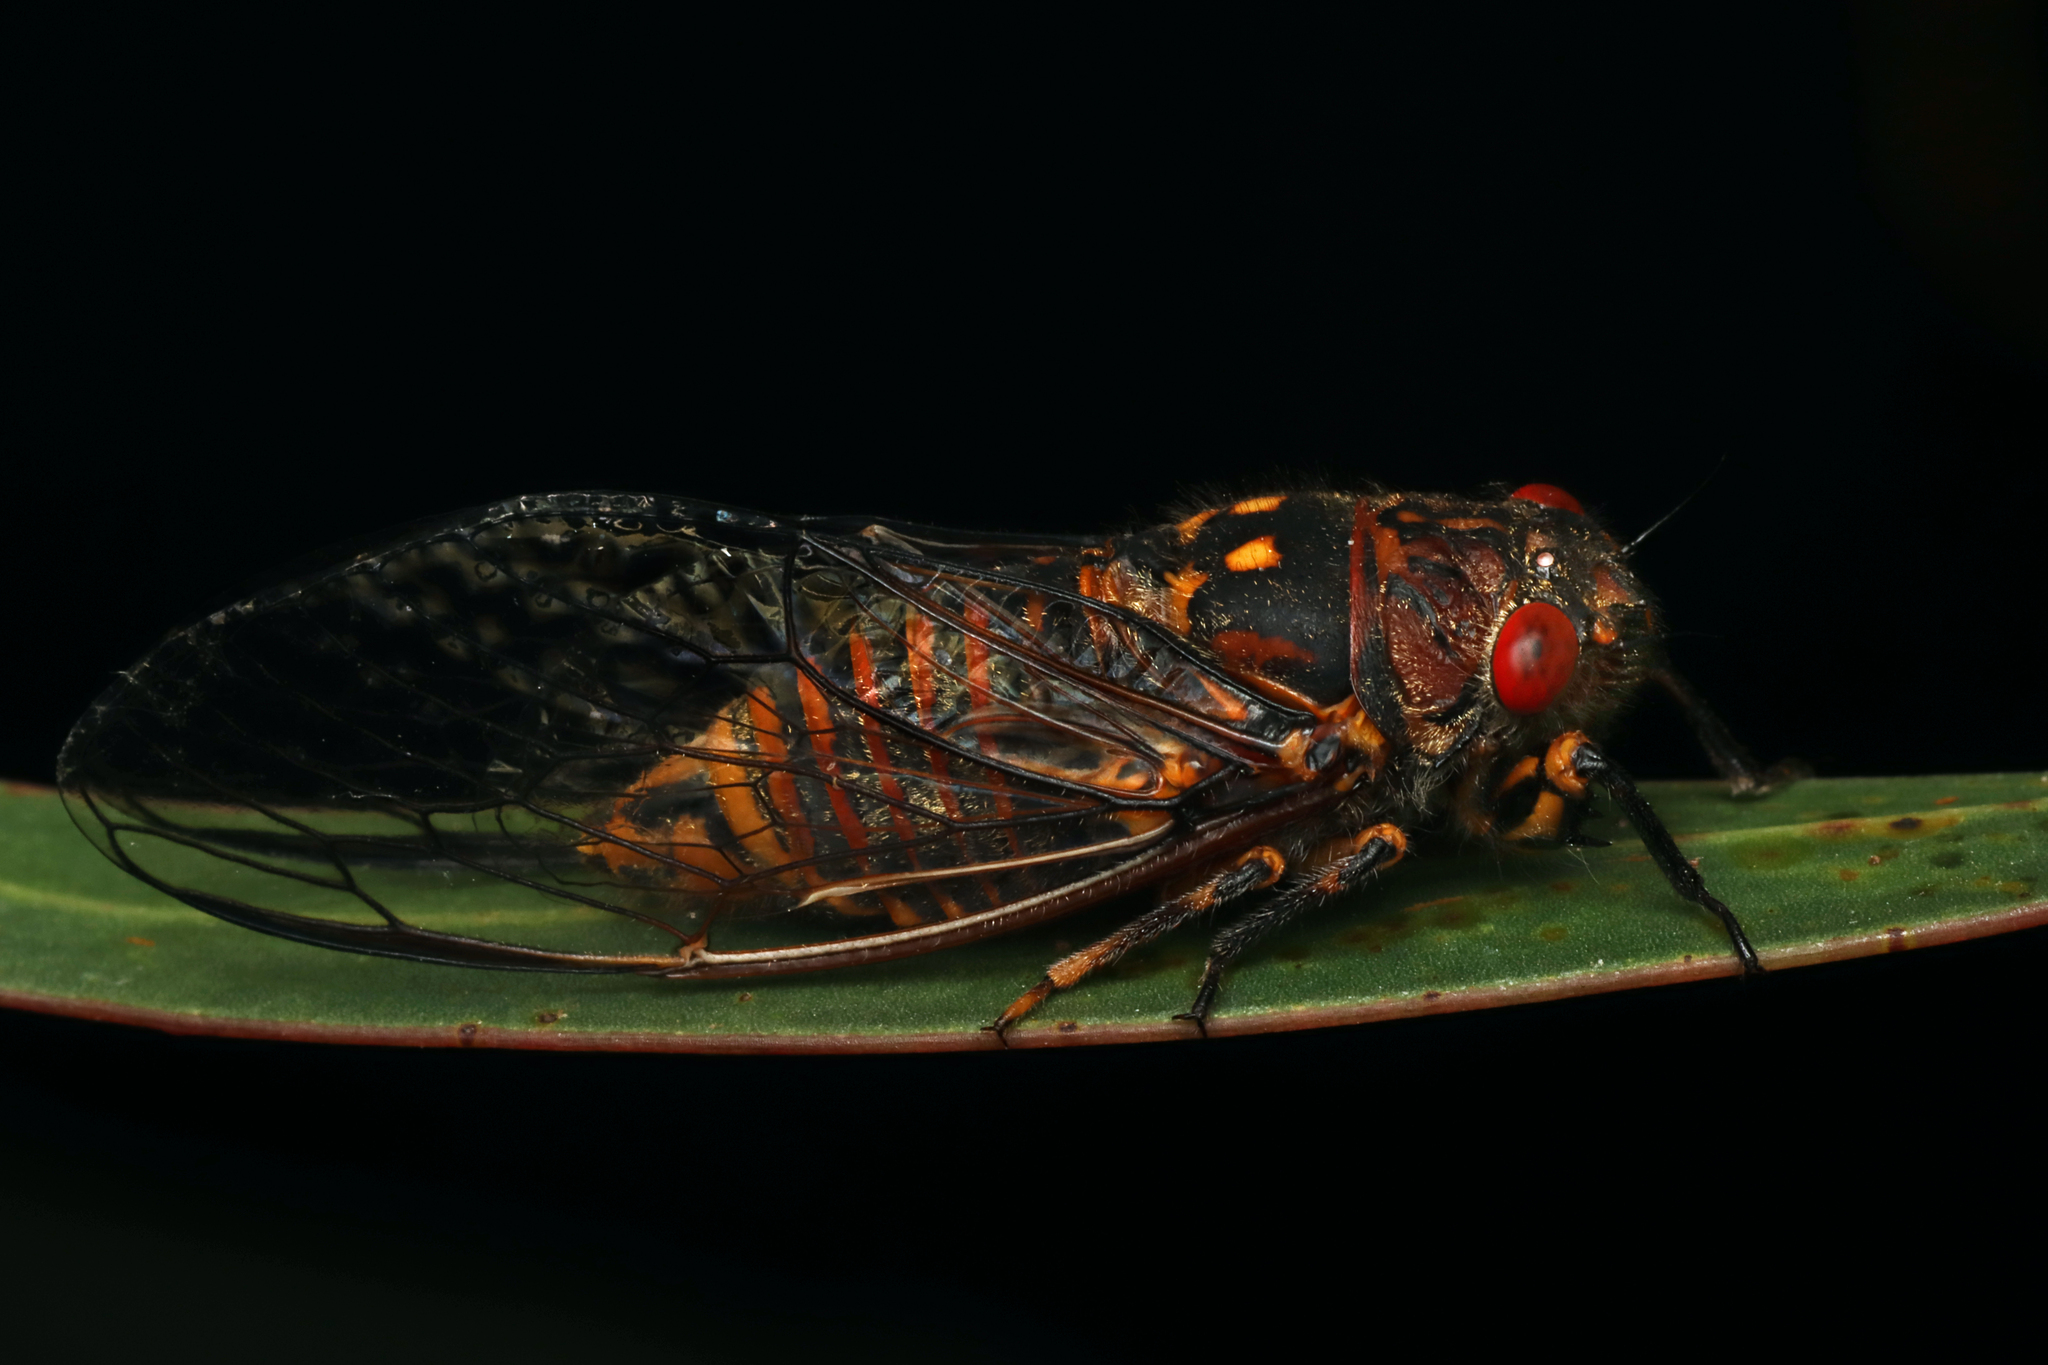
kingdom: Animalia
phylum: Arthropoda
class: Insecta
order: Hemiptera
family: Cicadidae
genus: Clinopsalta
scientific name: Clinopsalta adelaida
